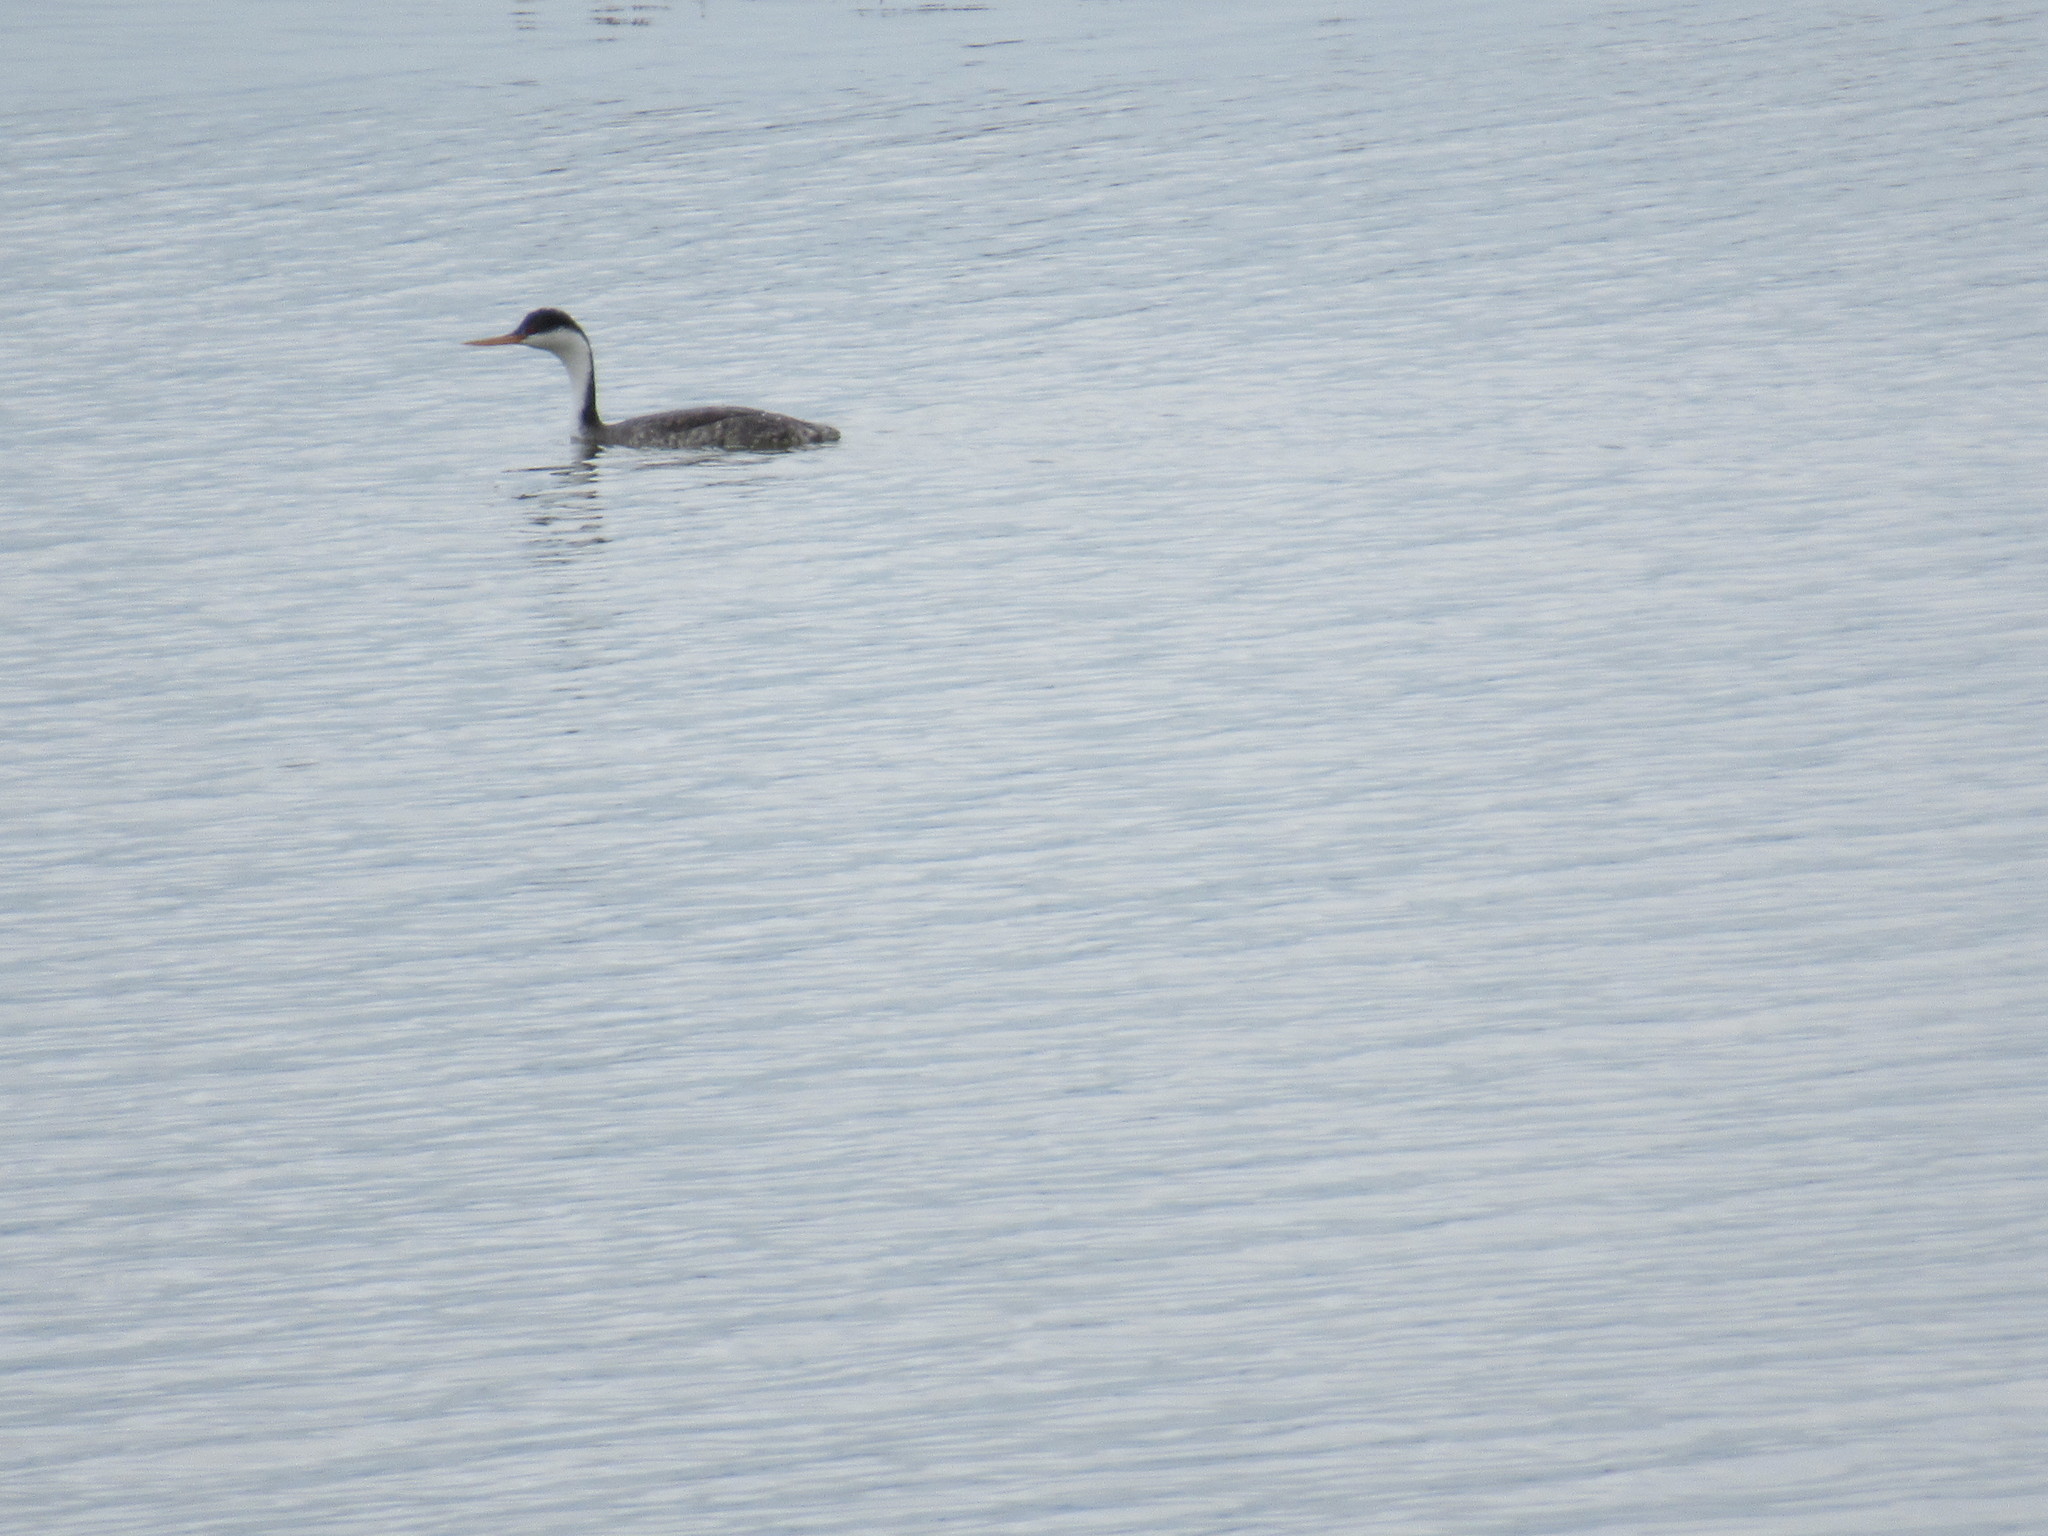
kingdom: Animalia
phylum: Chordata
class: Aves
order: Podicipediformes
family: Podicipedidae
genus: Aechmophorus
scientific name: Aechmophorus occidentalis
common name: Western grebe
